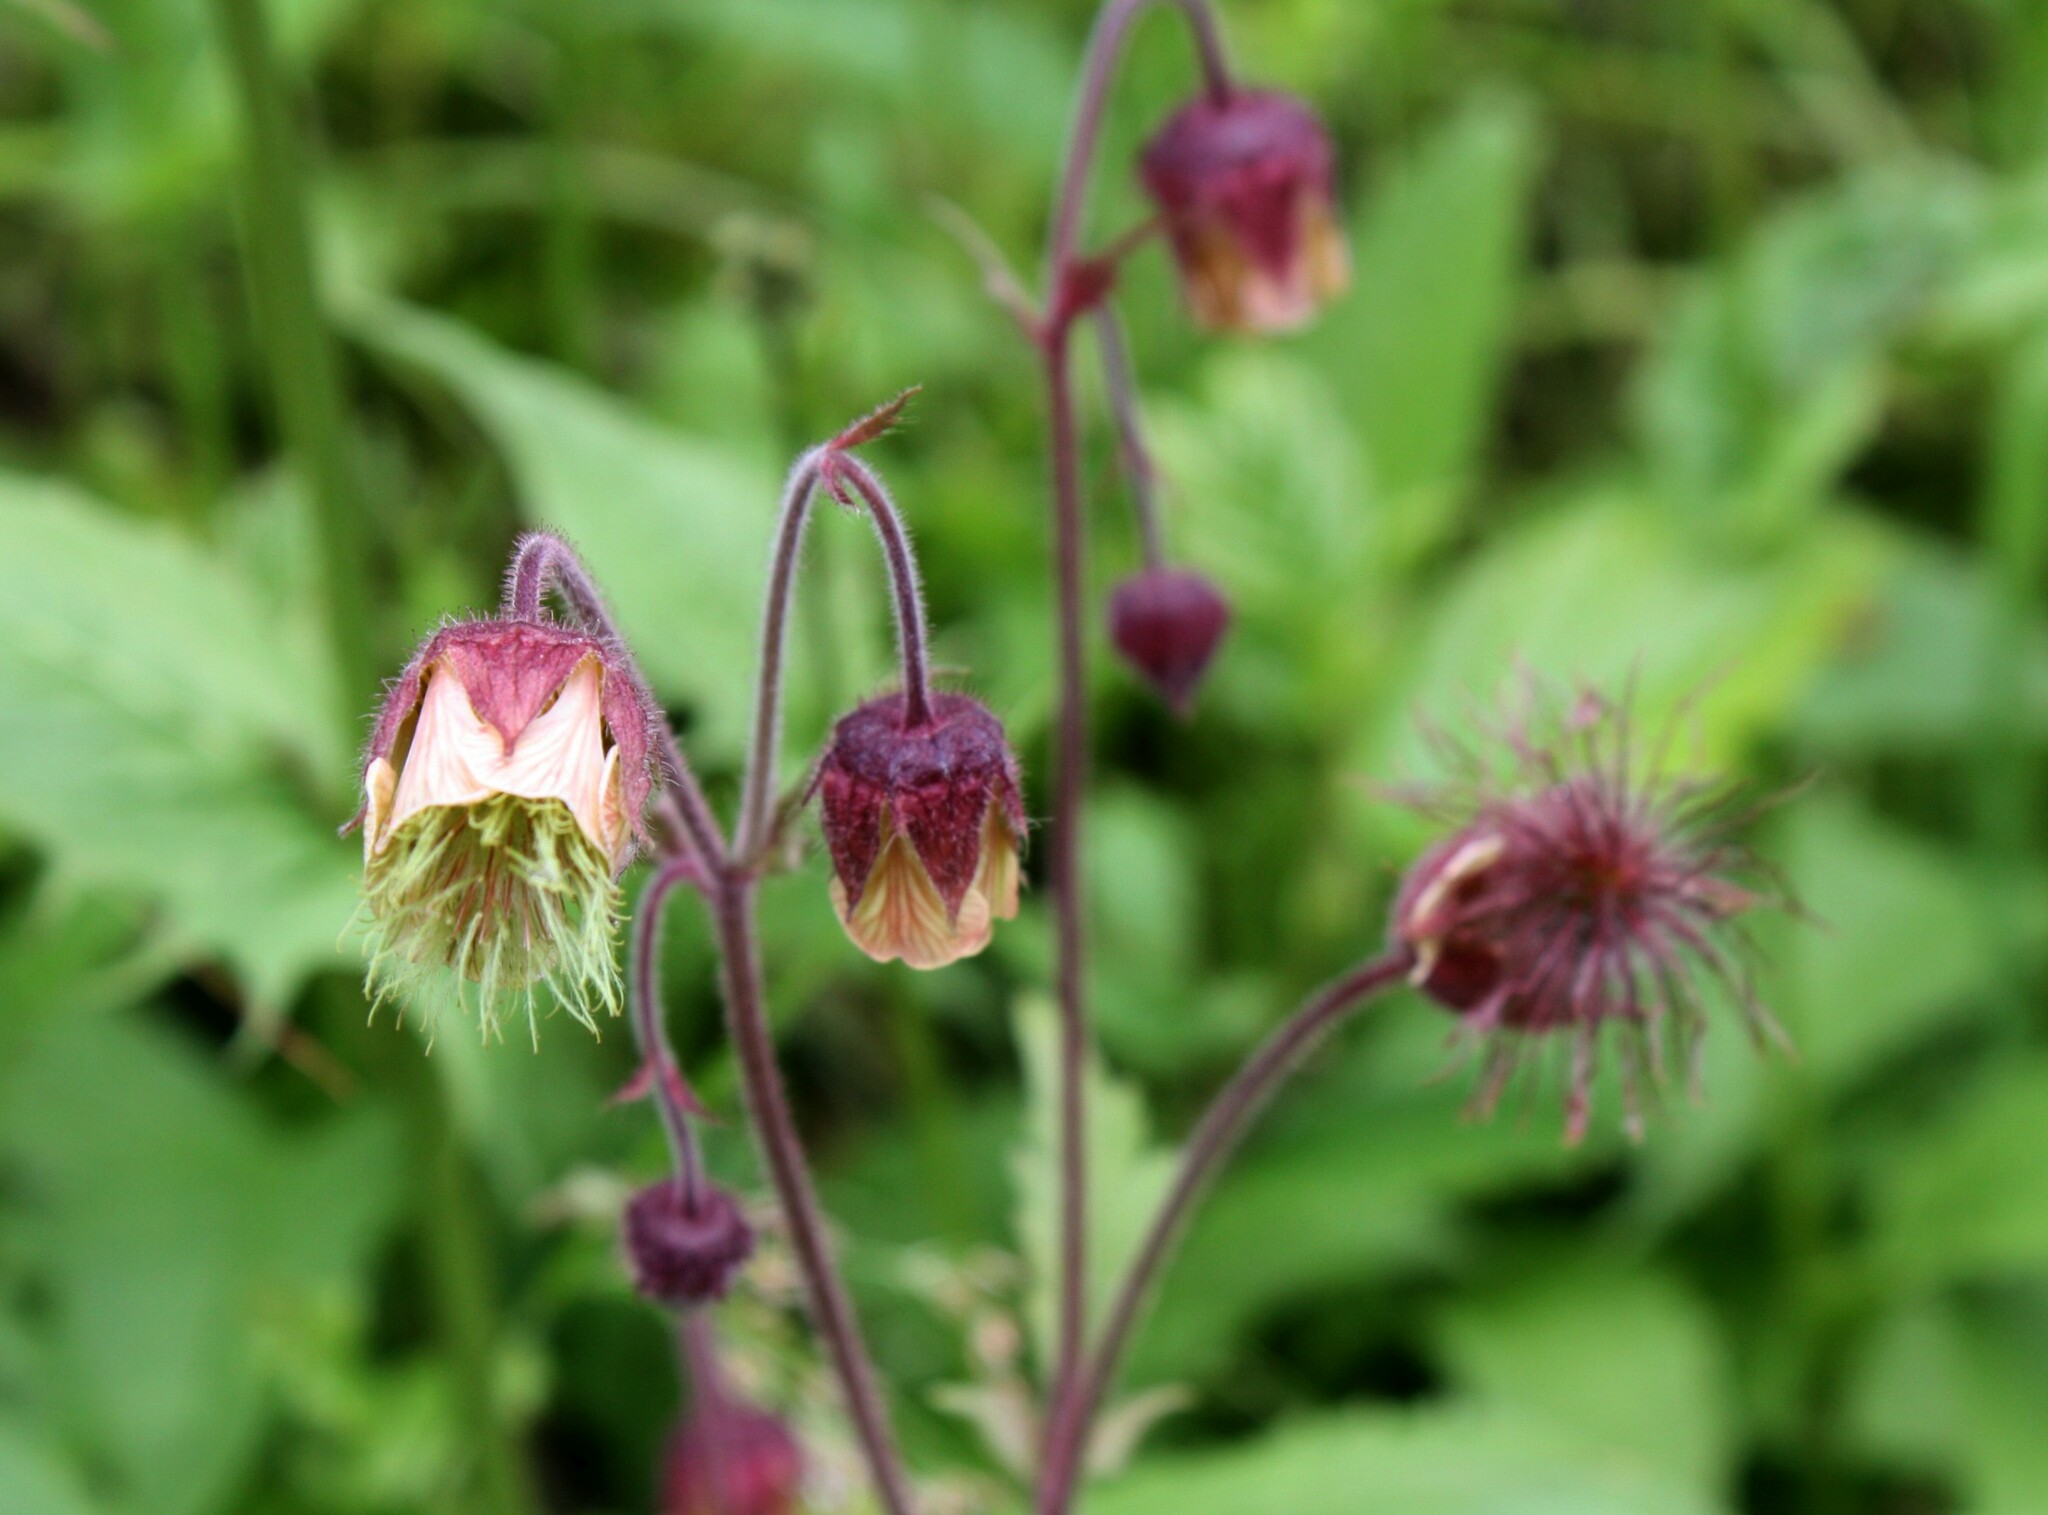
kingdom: Plantae
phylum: Tracheophyta
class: Magnoliopsida
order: Rosales
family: Rosaceae
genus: Geum
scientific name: Geum rivale
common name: Water avens
